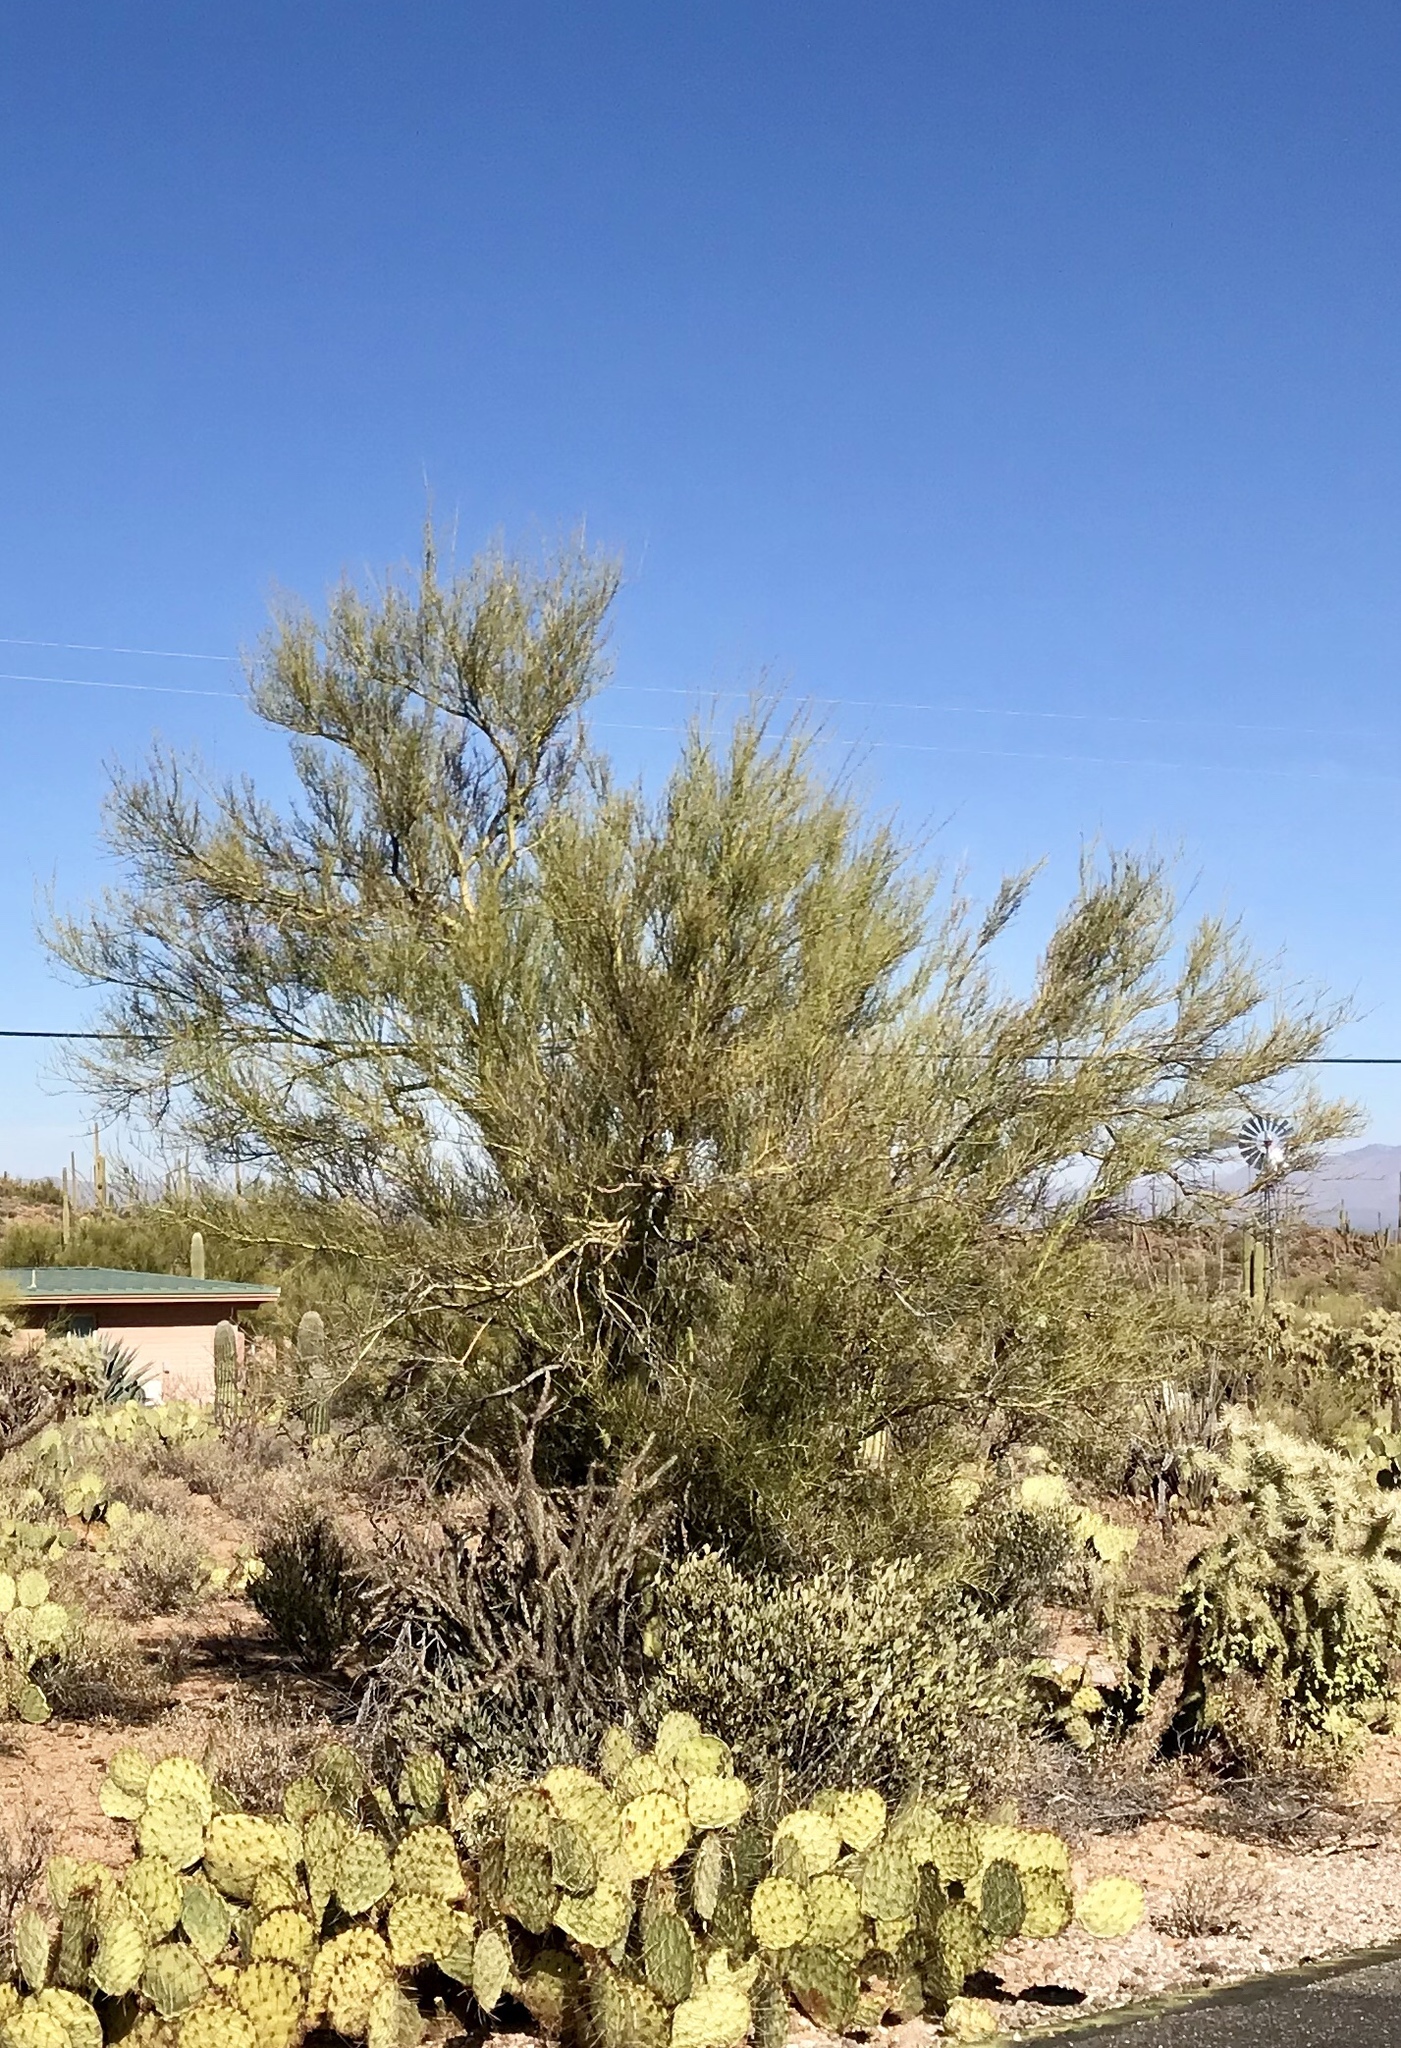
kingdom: Plantae
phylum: Tracheophyta
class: Magnoliopsida
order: Fabales
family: Fabaceae
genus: Parkinsonia
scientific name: Parkinsonia florida
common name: Blue paloverde
